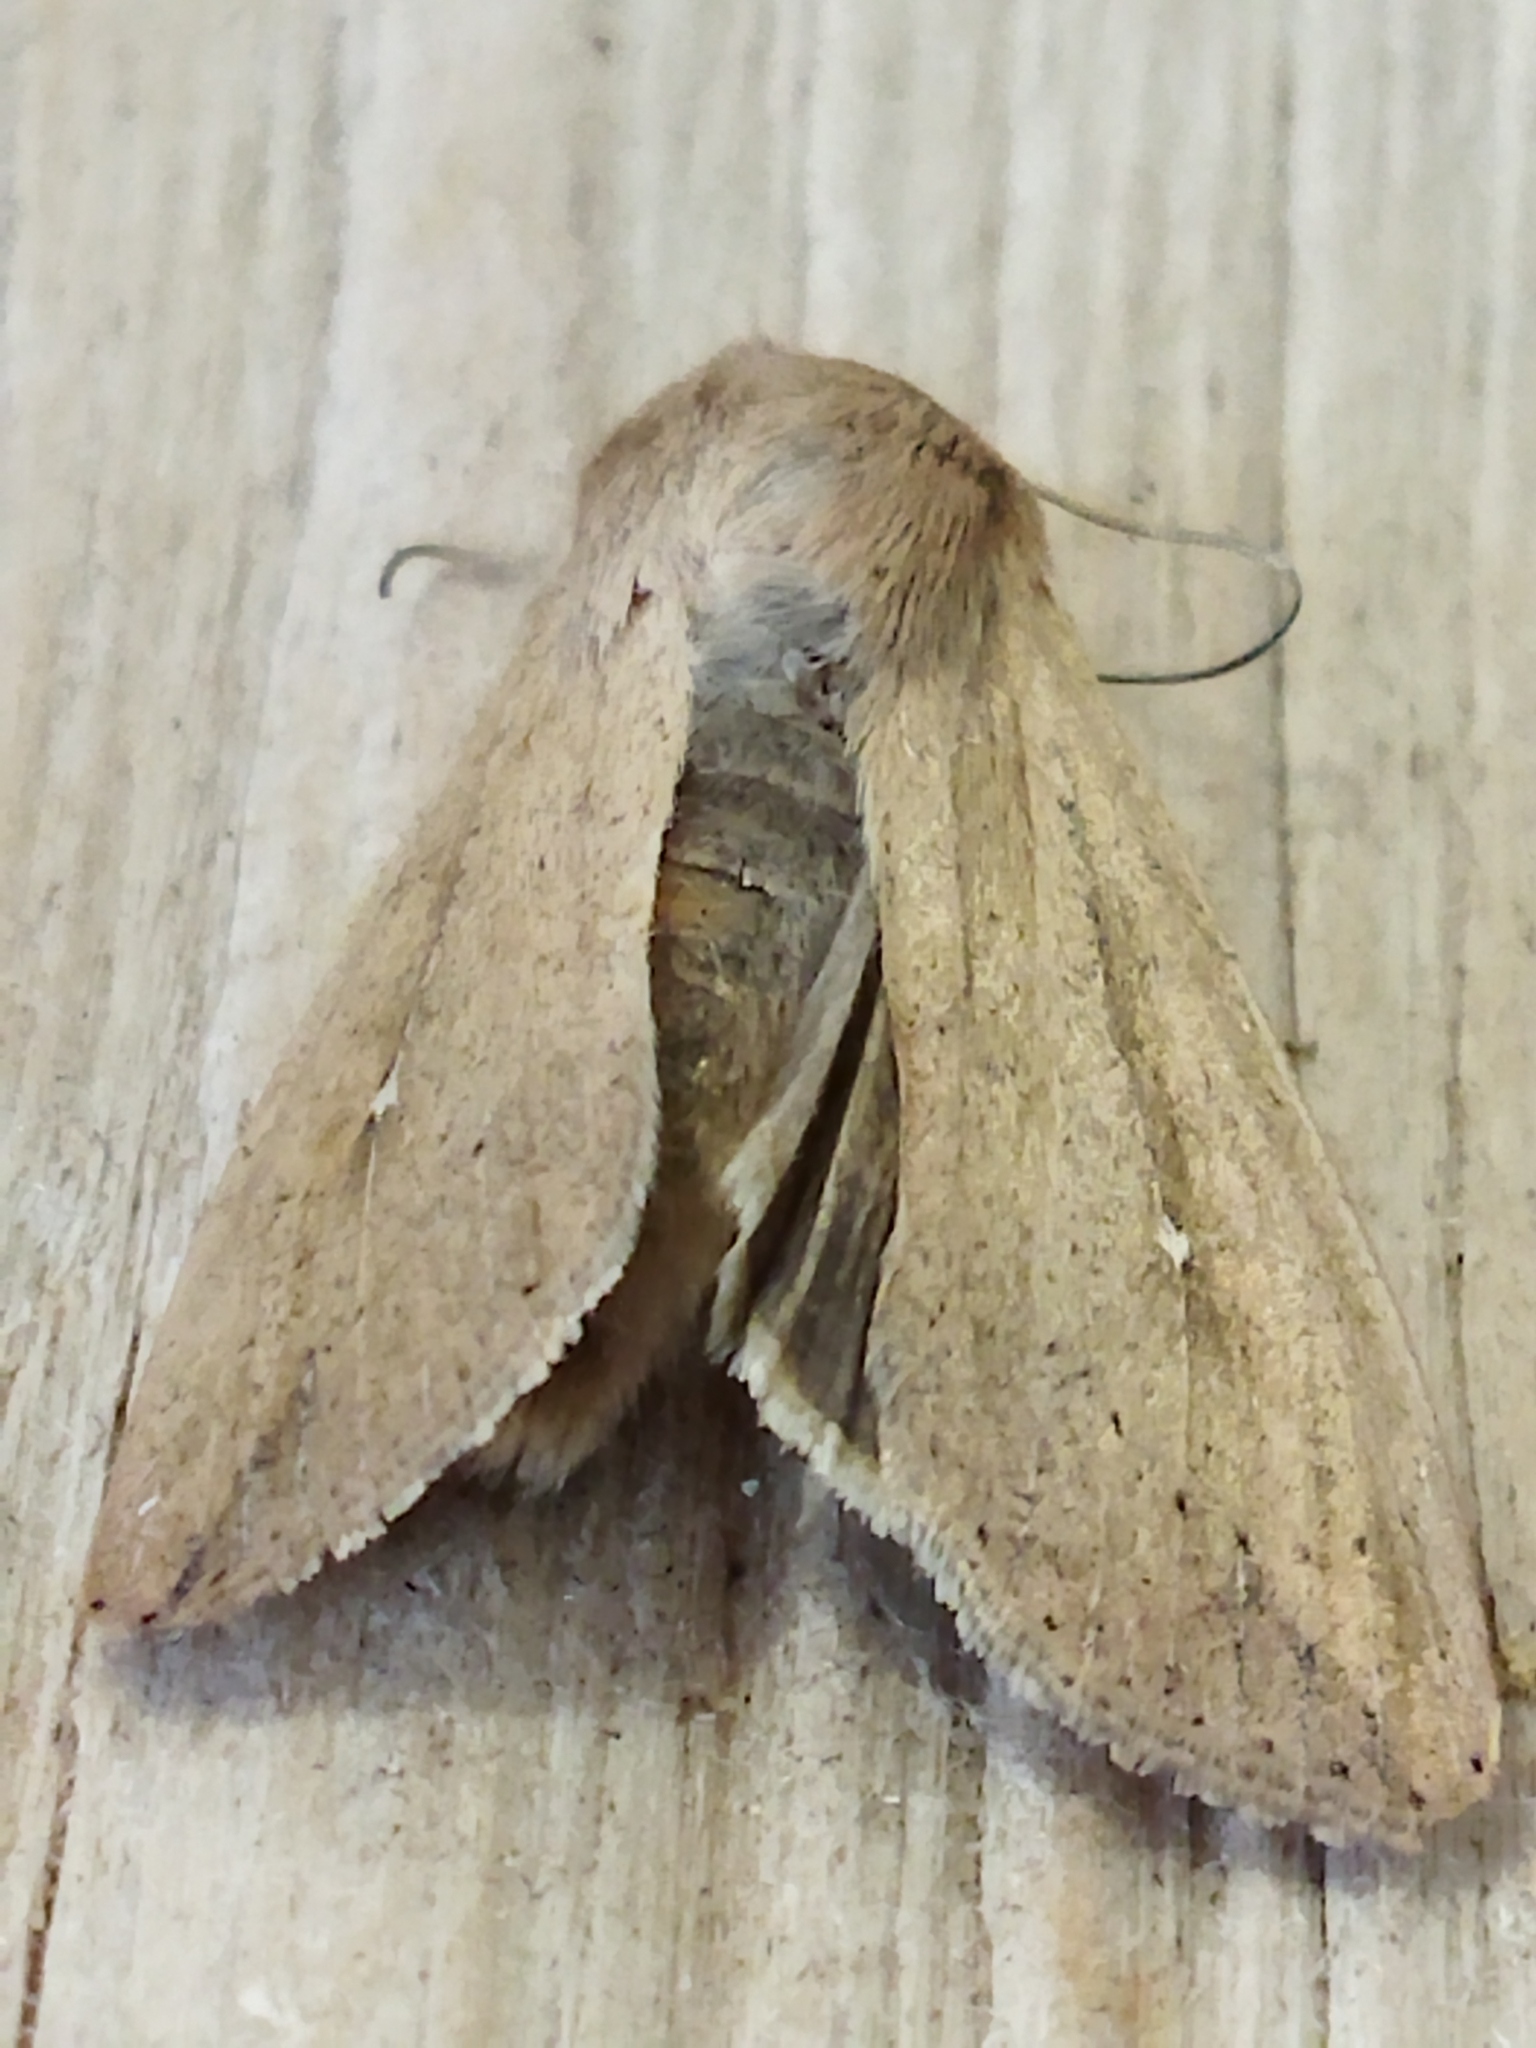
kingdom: Animalia
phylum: Arthropoda
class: Insecta
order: Lepidoptera
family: Noctuidae
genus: Mythimna
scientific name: Mythimna unipuncta
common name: White-speck
